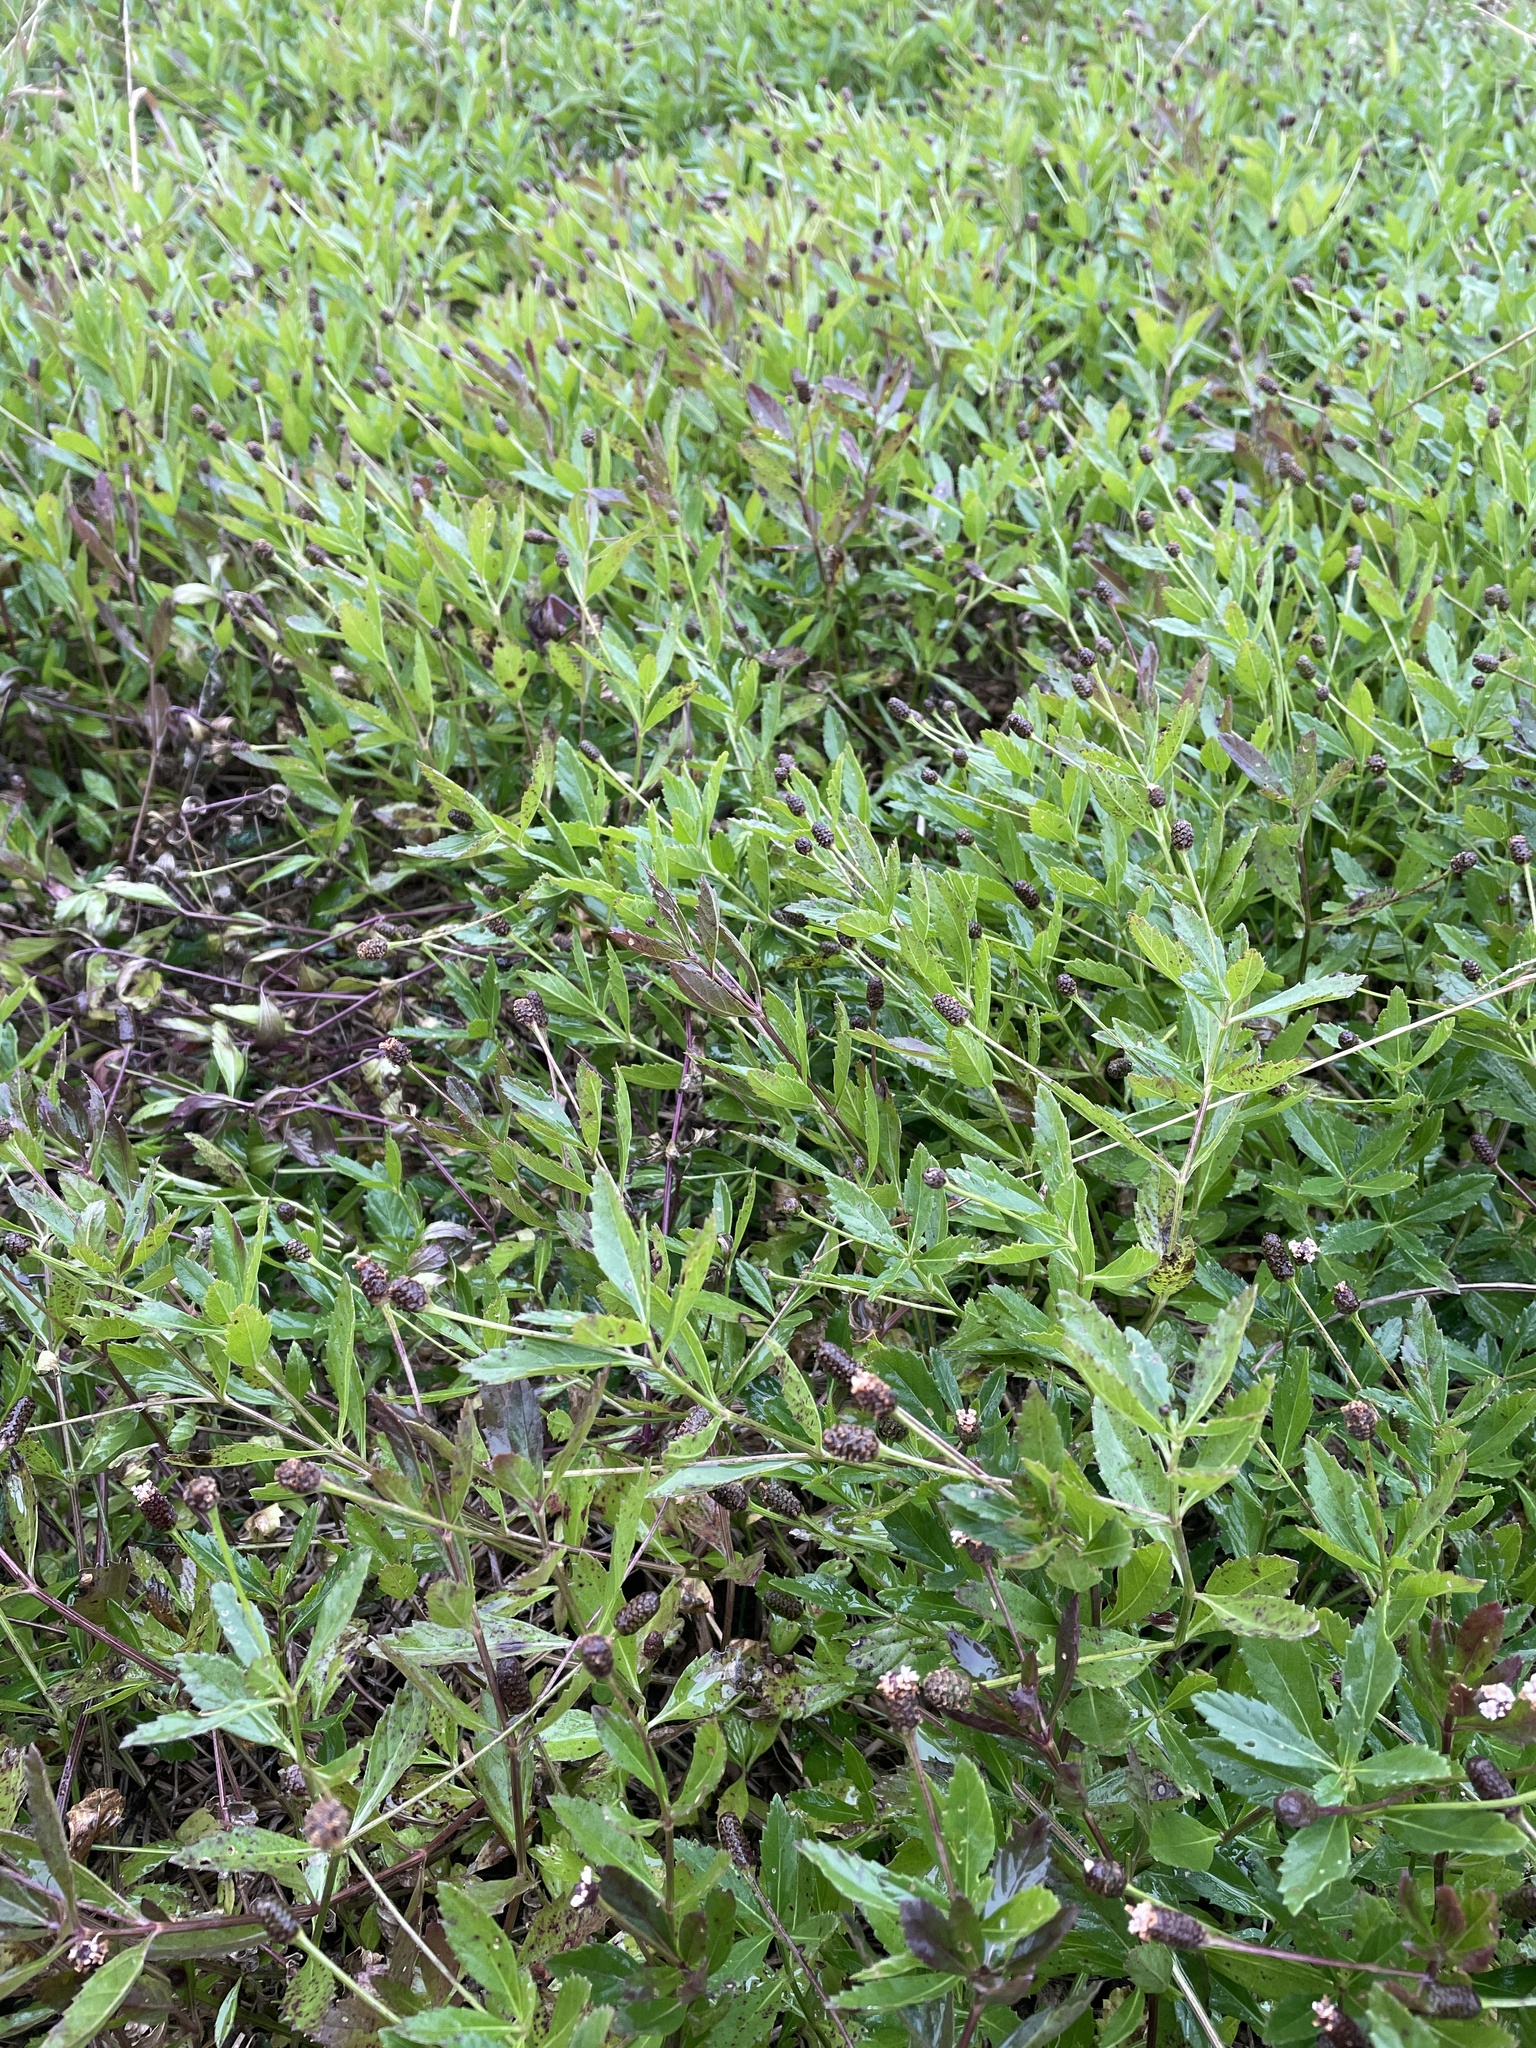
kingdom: Plantae
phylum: Tracheophyta
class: Magnoliopsida
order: Lamiales
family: Verbenaceae
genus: Phyla
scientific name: Phyla lanceolata
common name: Northern fogfruit
